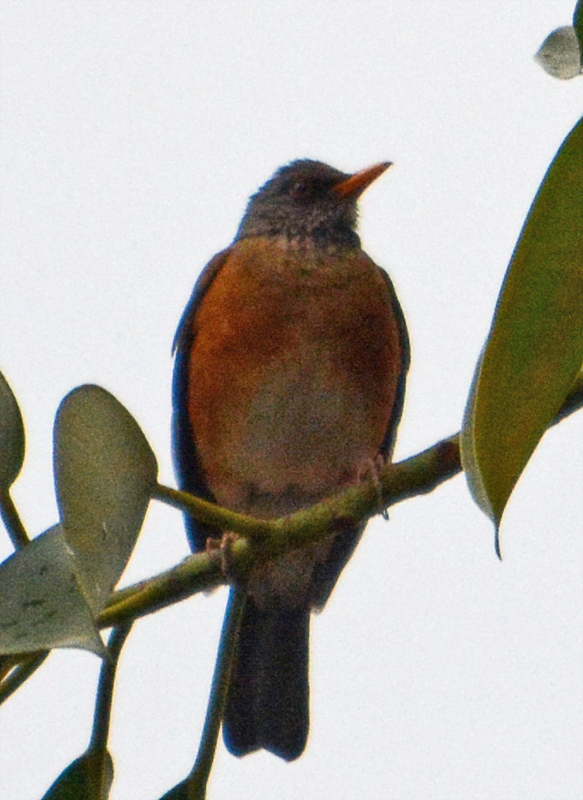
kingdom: Animalia
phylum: Chordata
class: Aves
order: Passeriformes
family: Turdidae
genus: Turdus
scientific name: Turdus rufopalliatus
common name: Rufous-backed robin
